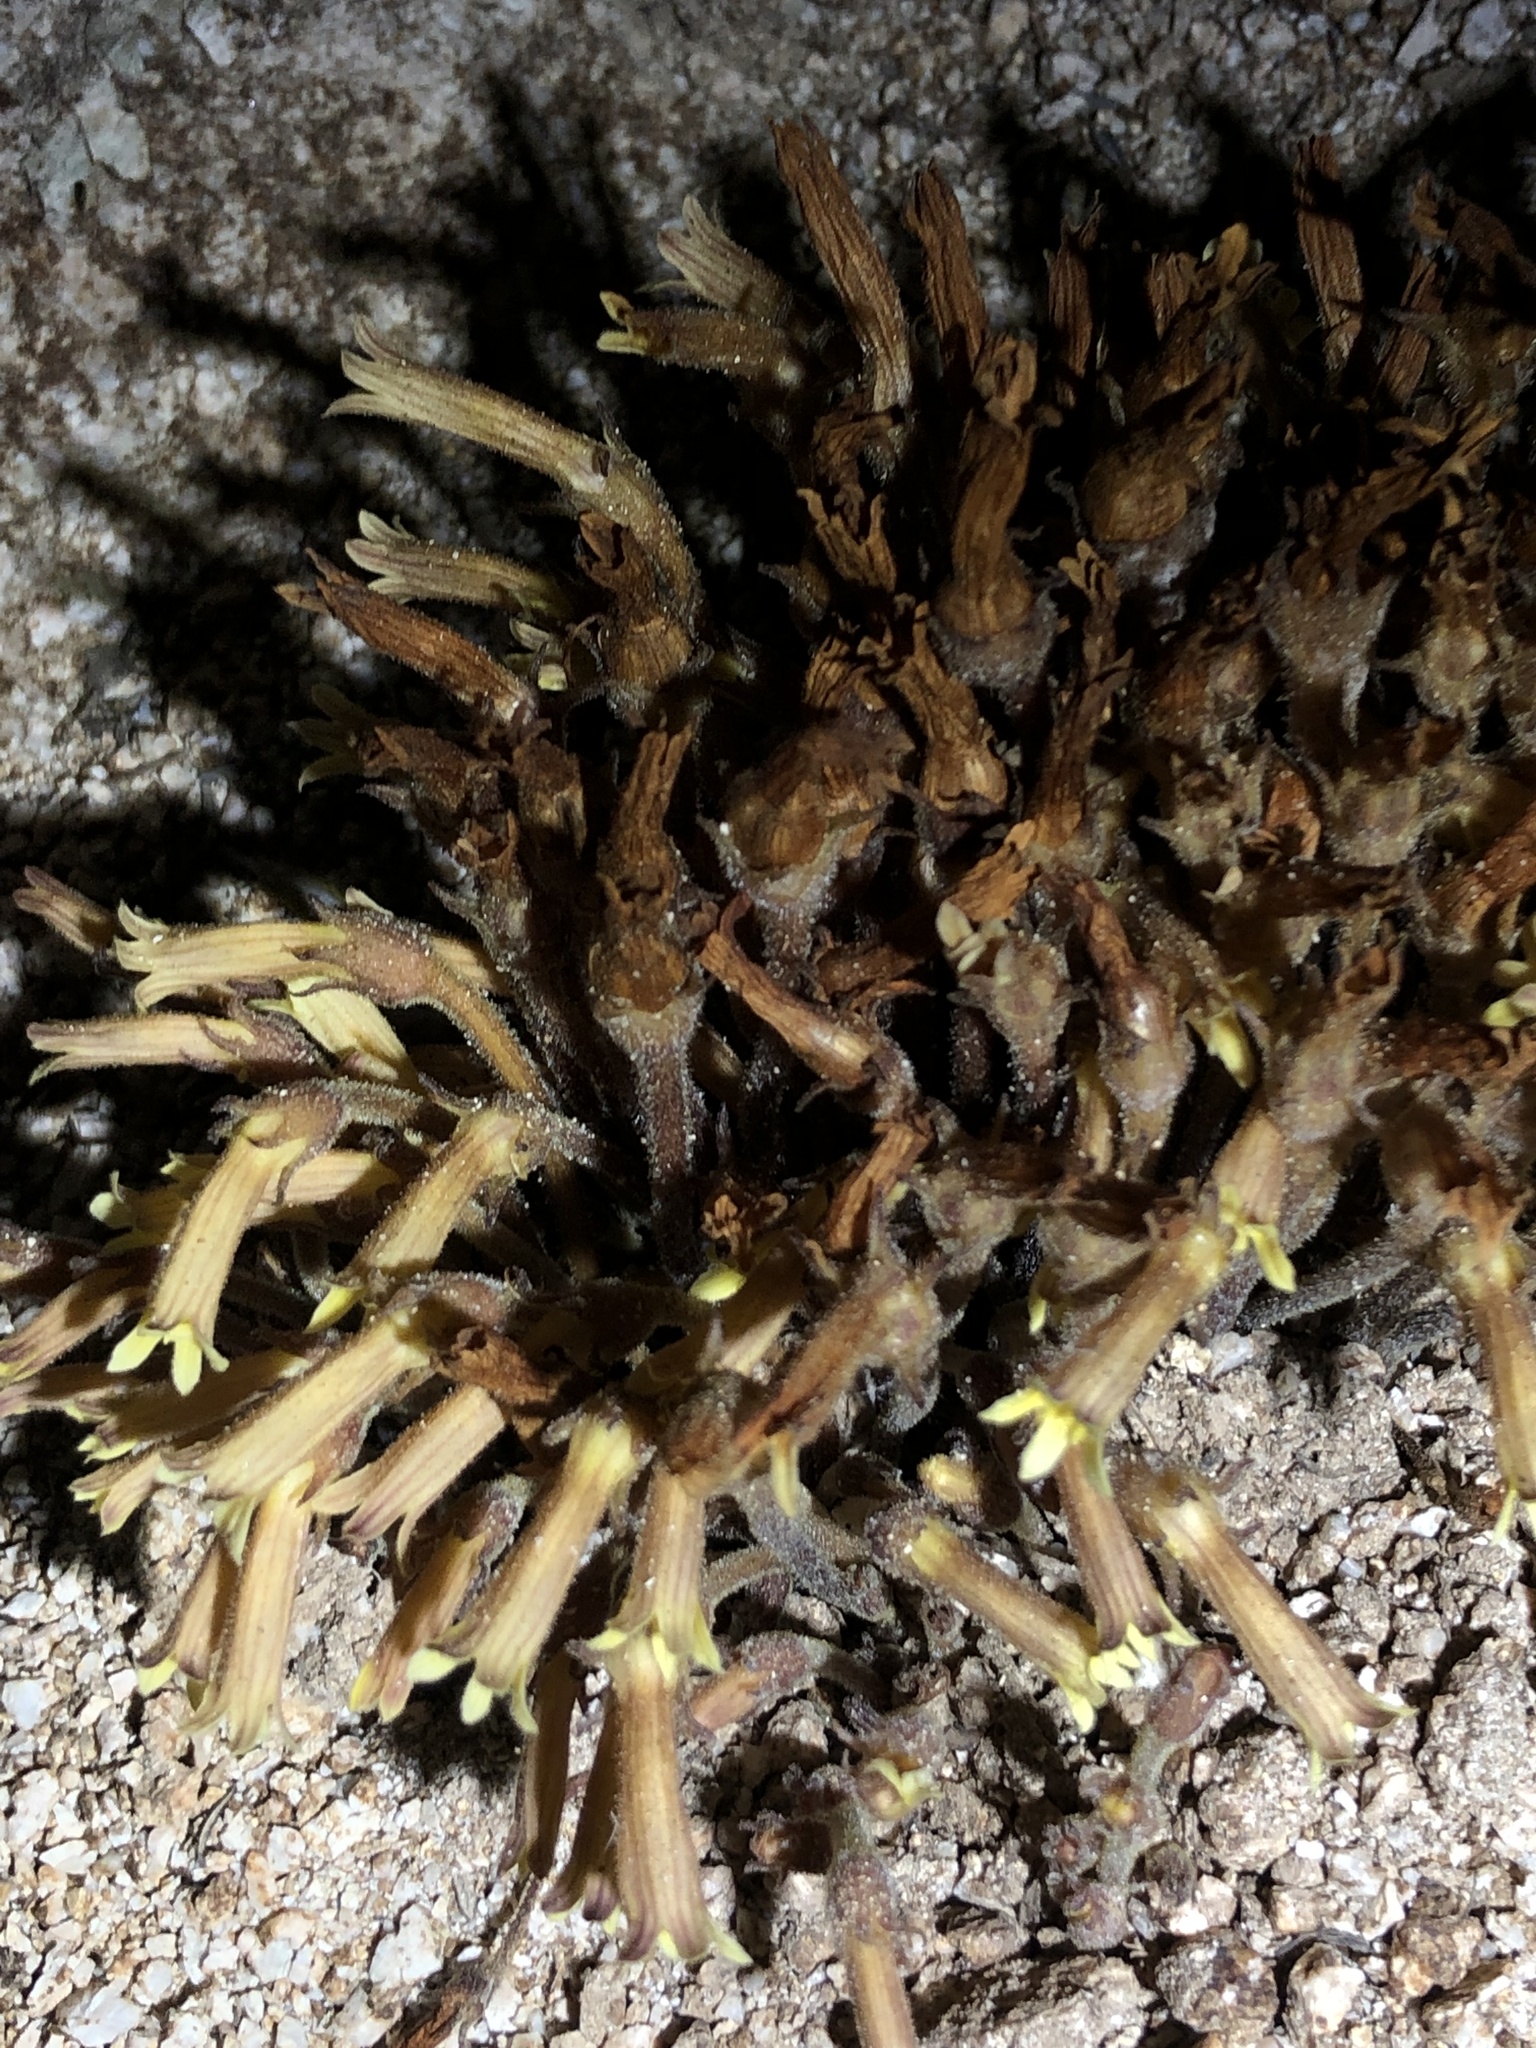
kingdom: Plantae
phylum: Tracheophyta
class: Magnoliopsida
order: Lamiales
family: Orobanchaceae
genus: Aphyllon
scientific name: Aphyllon franciscanum
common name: San francisco broomrape
